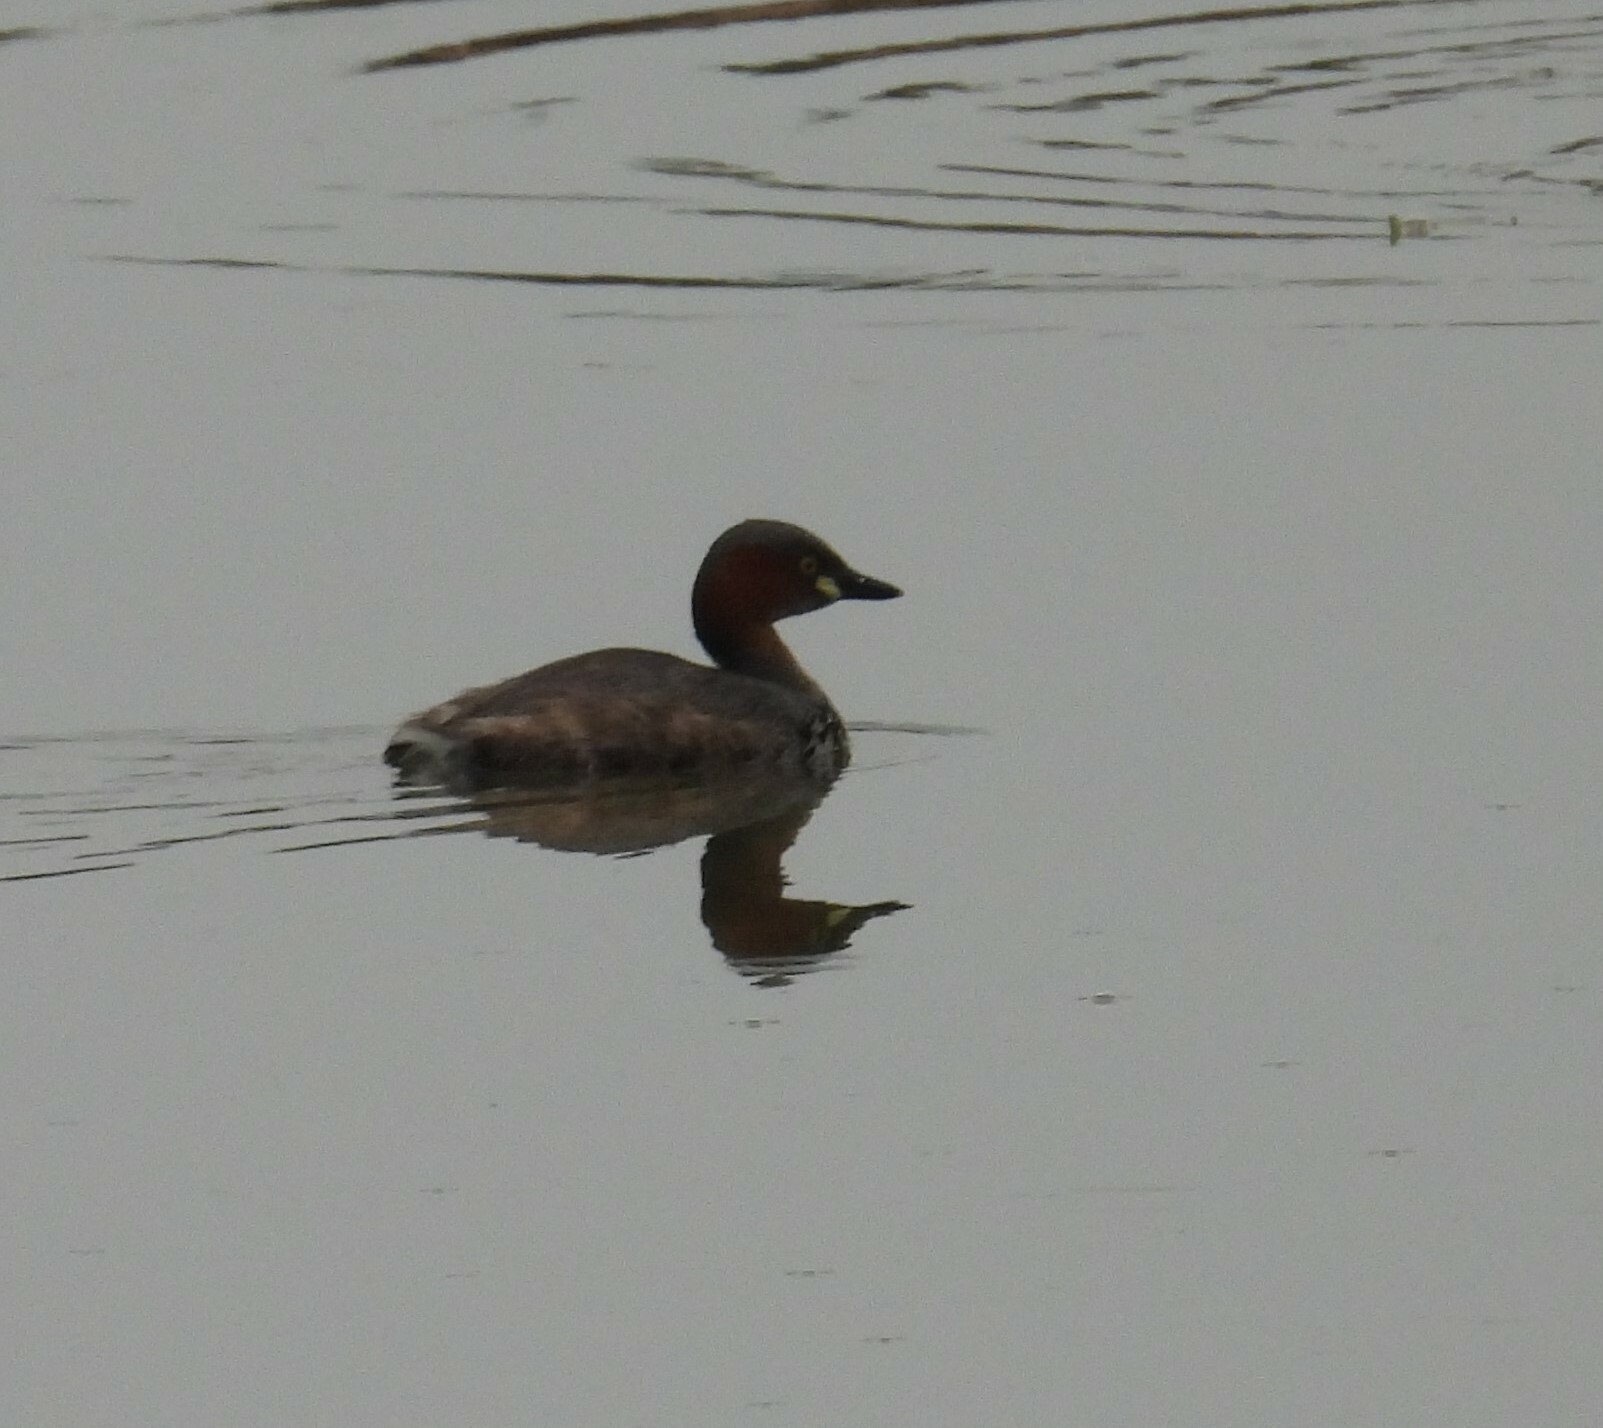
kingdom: Animalia
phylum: Chordata
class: Aves
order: Podicipediformes
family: Podicipedidae
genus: Tachybaptus
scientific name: Tachybaptus ruficollis
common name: Little grebe
